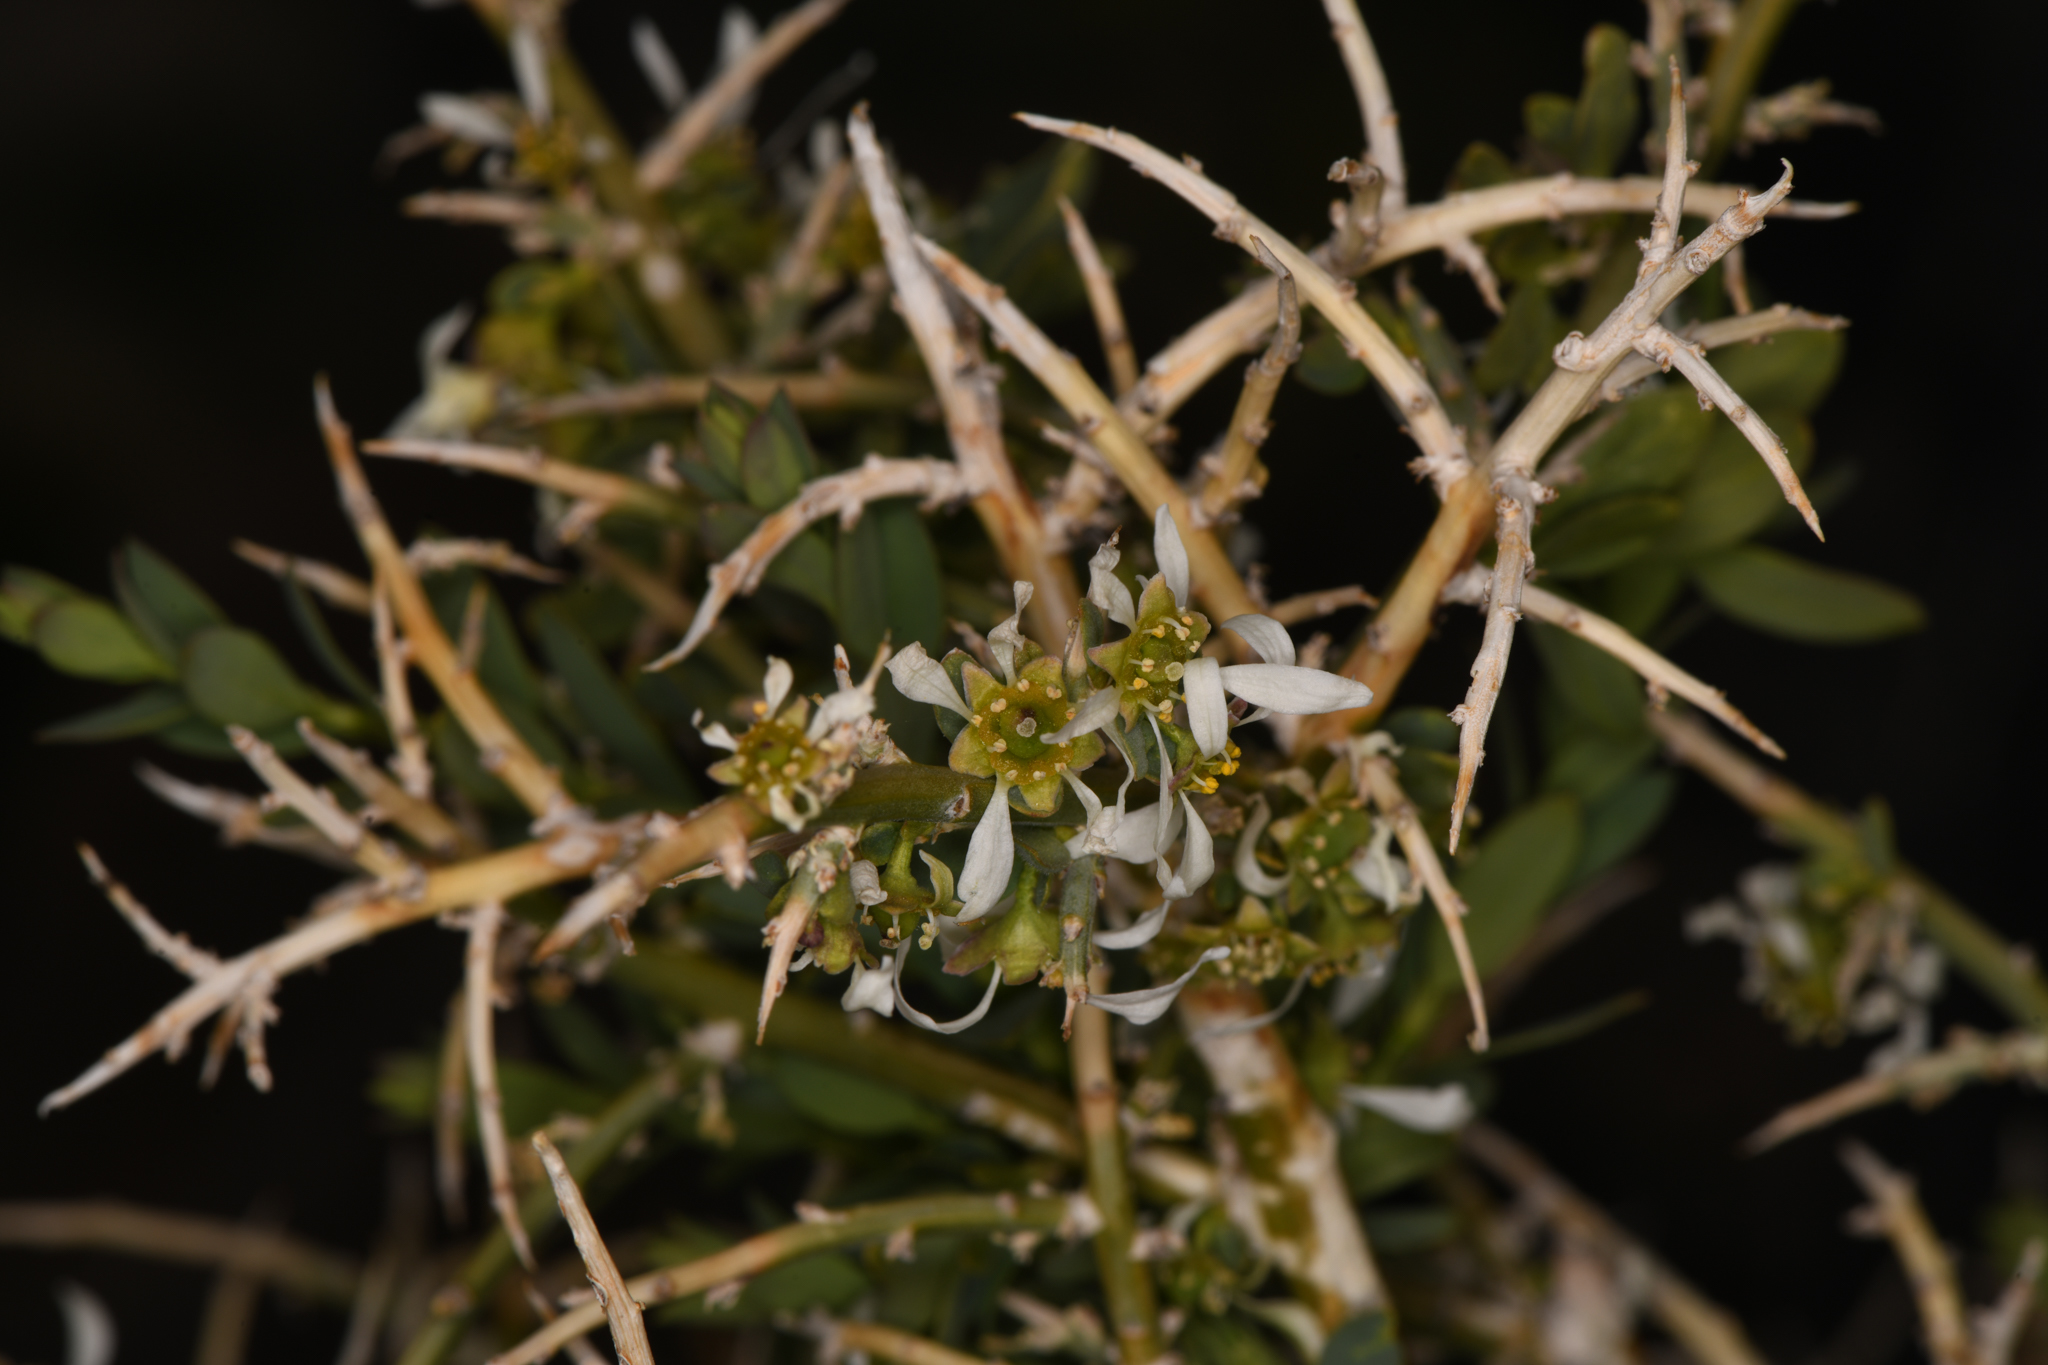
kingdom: Plantae
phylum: Tracheophyta
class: Magnoliopsida
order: Crossosomatales
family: Crossosomataceae
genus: Glossopetalon
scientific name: Glossopetalon spinescens
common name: Spring greasebush
